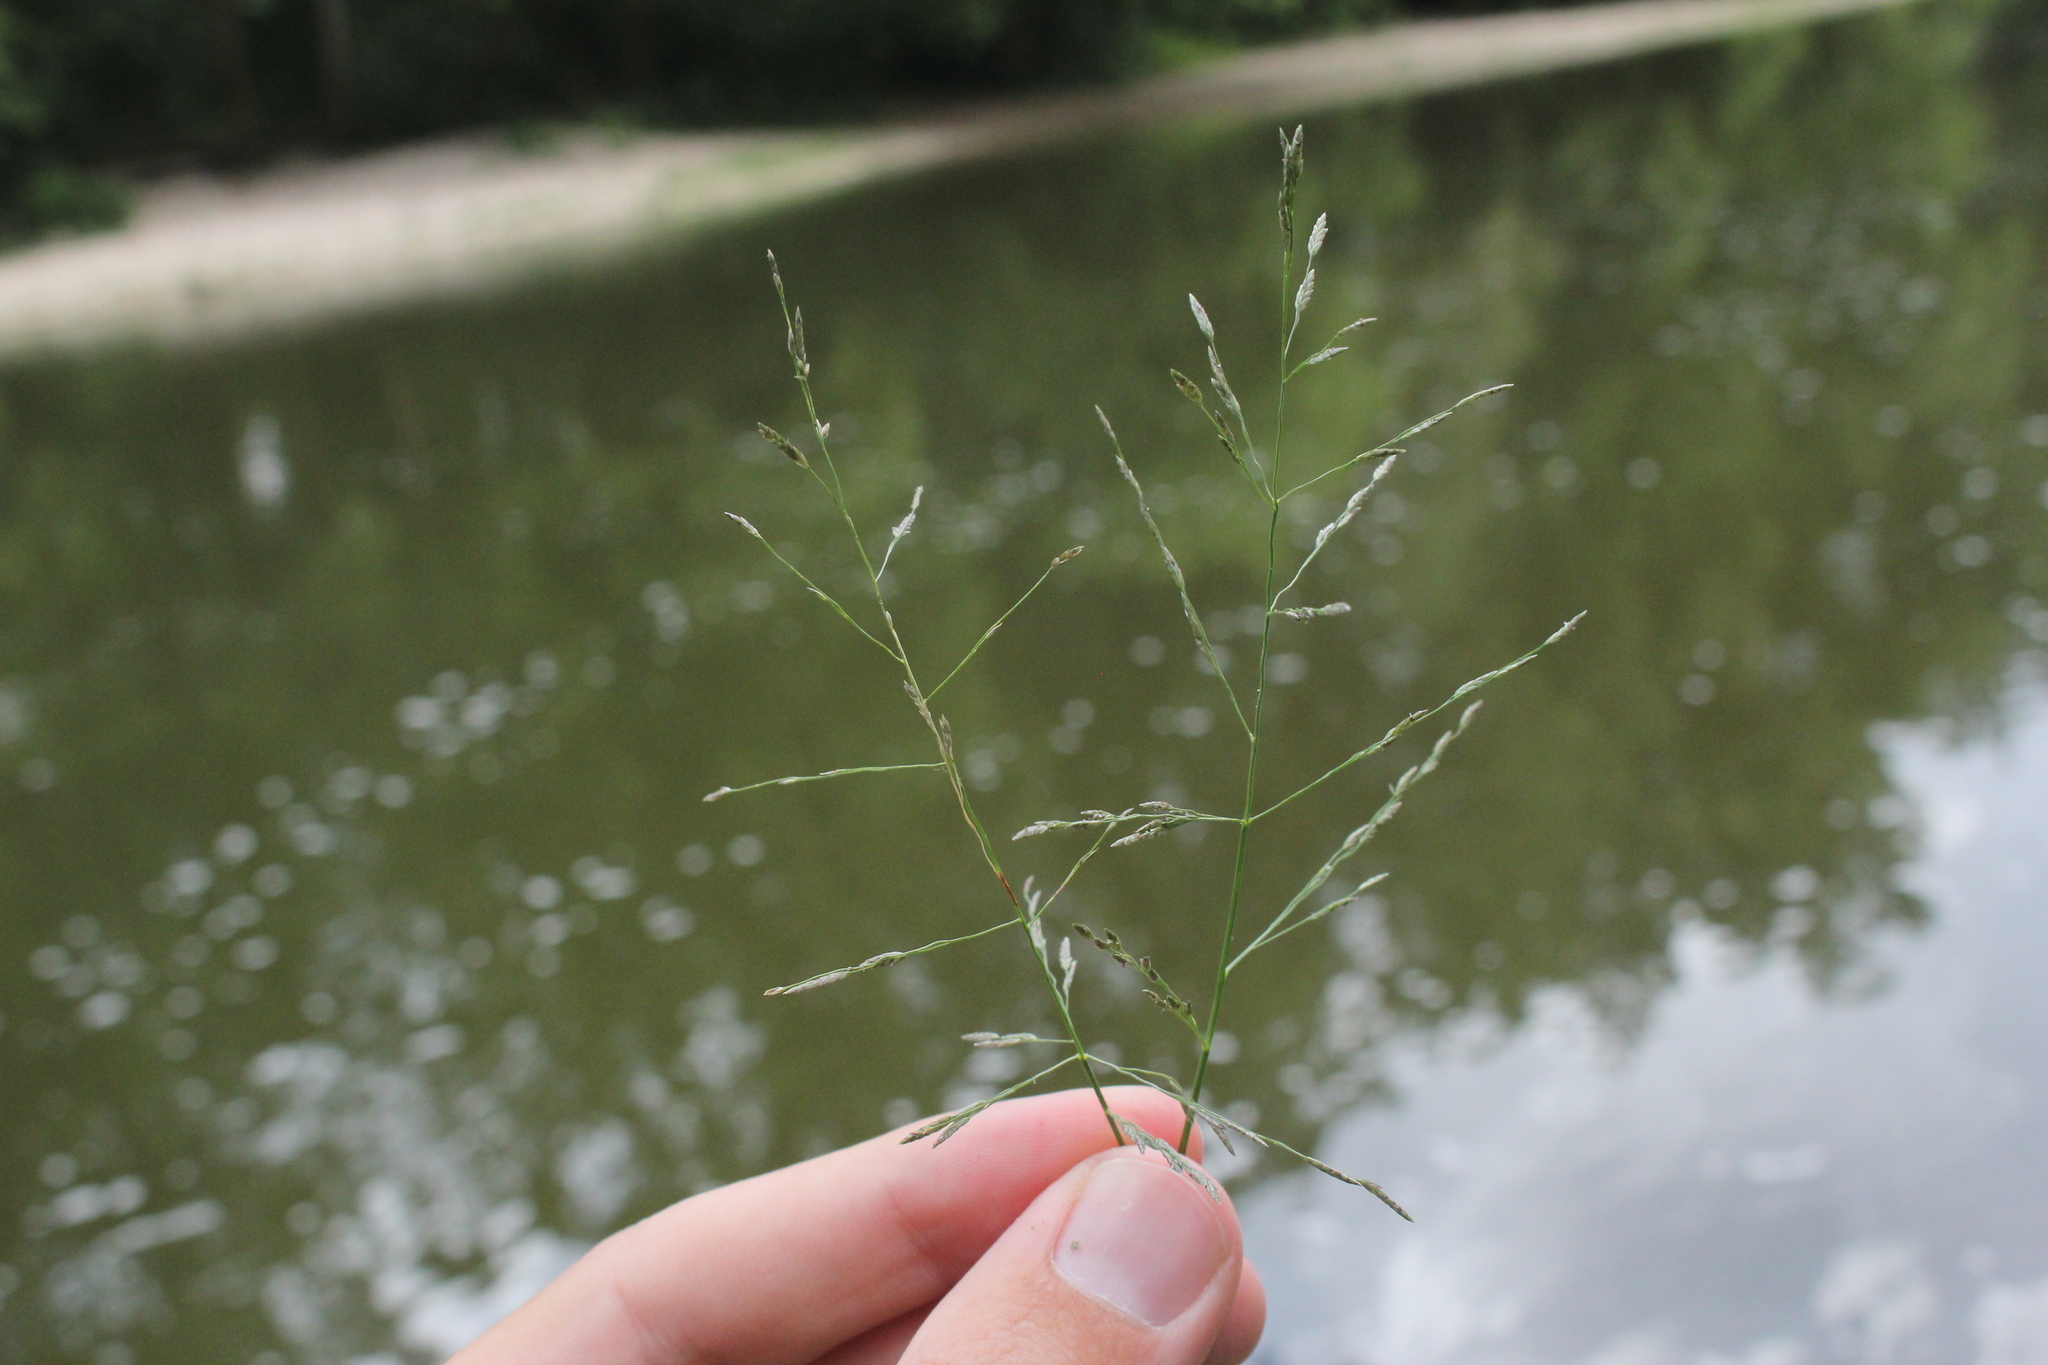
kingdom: Plantae
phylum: Tracheophyta
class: Liliopsida
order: Poales
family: Poaceae
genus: Eragrostis
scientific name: Eragrostis pectinacea
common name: Tufted lovegrass
